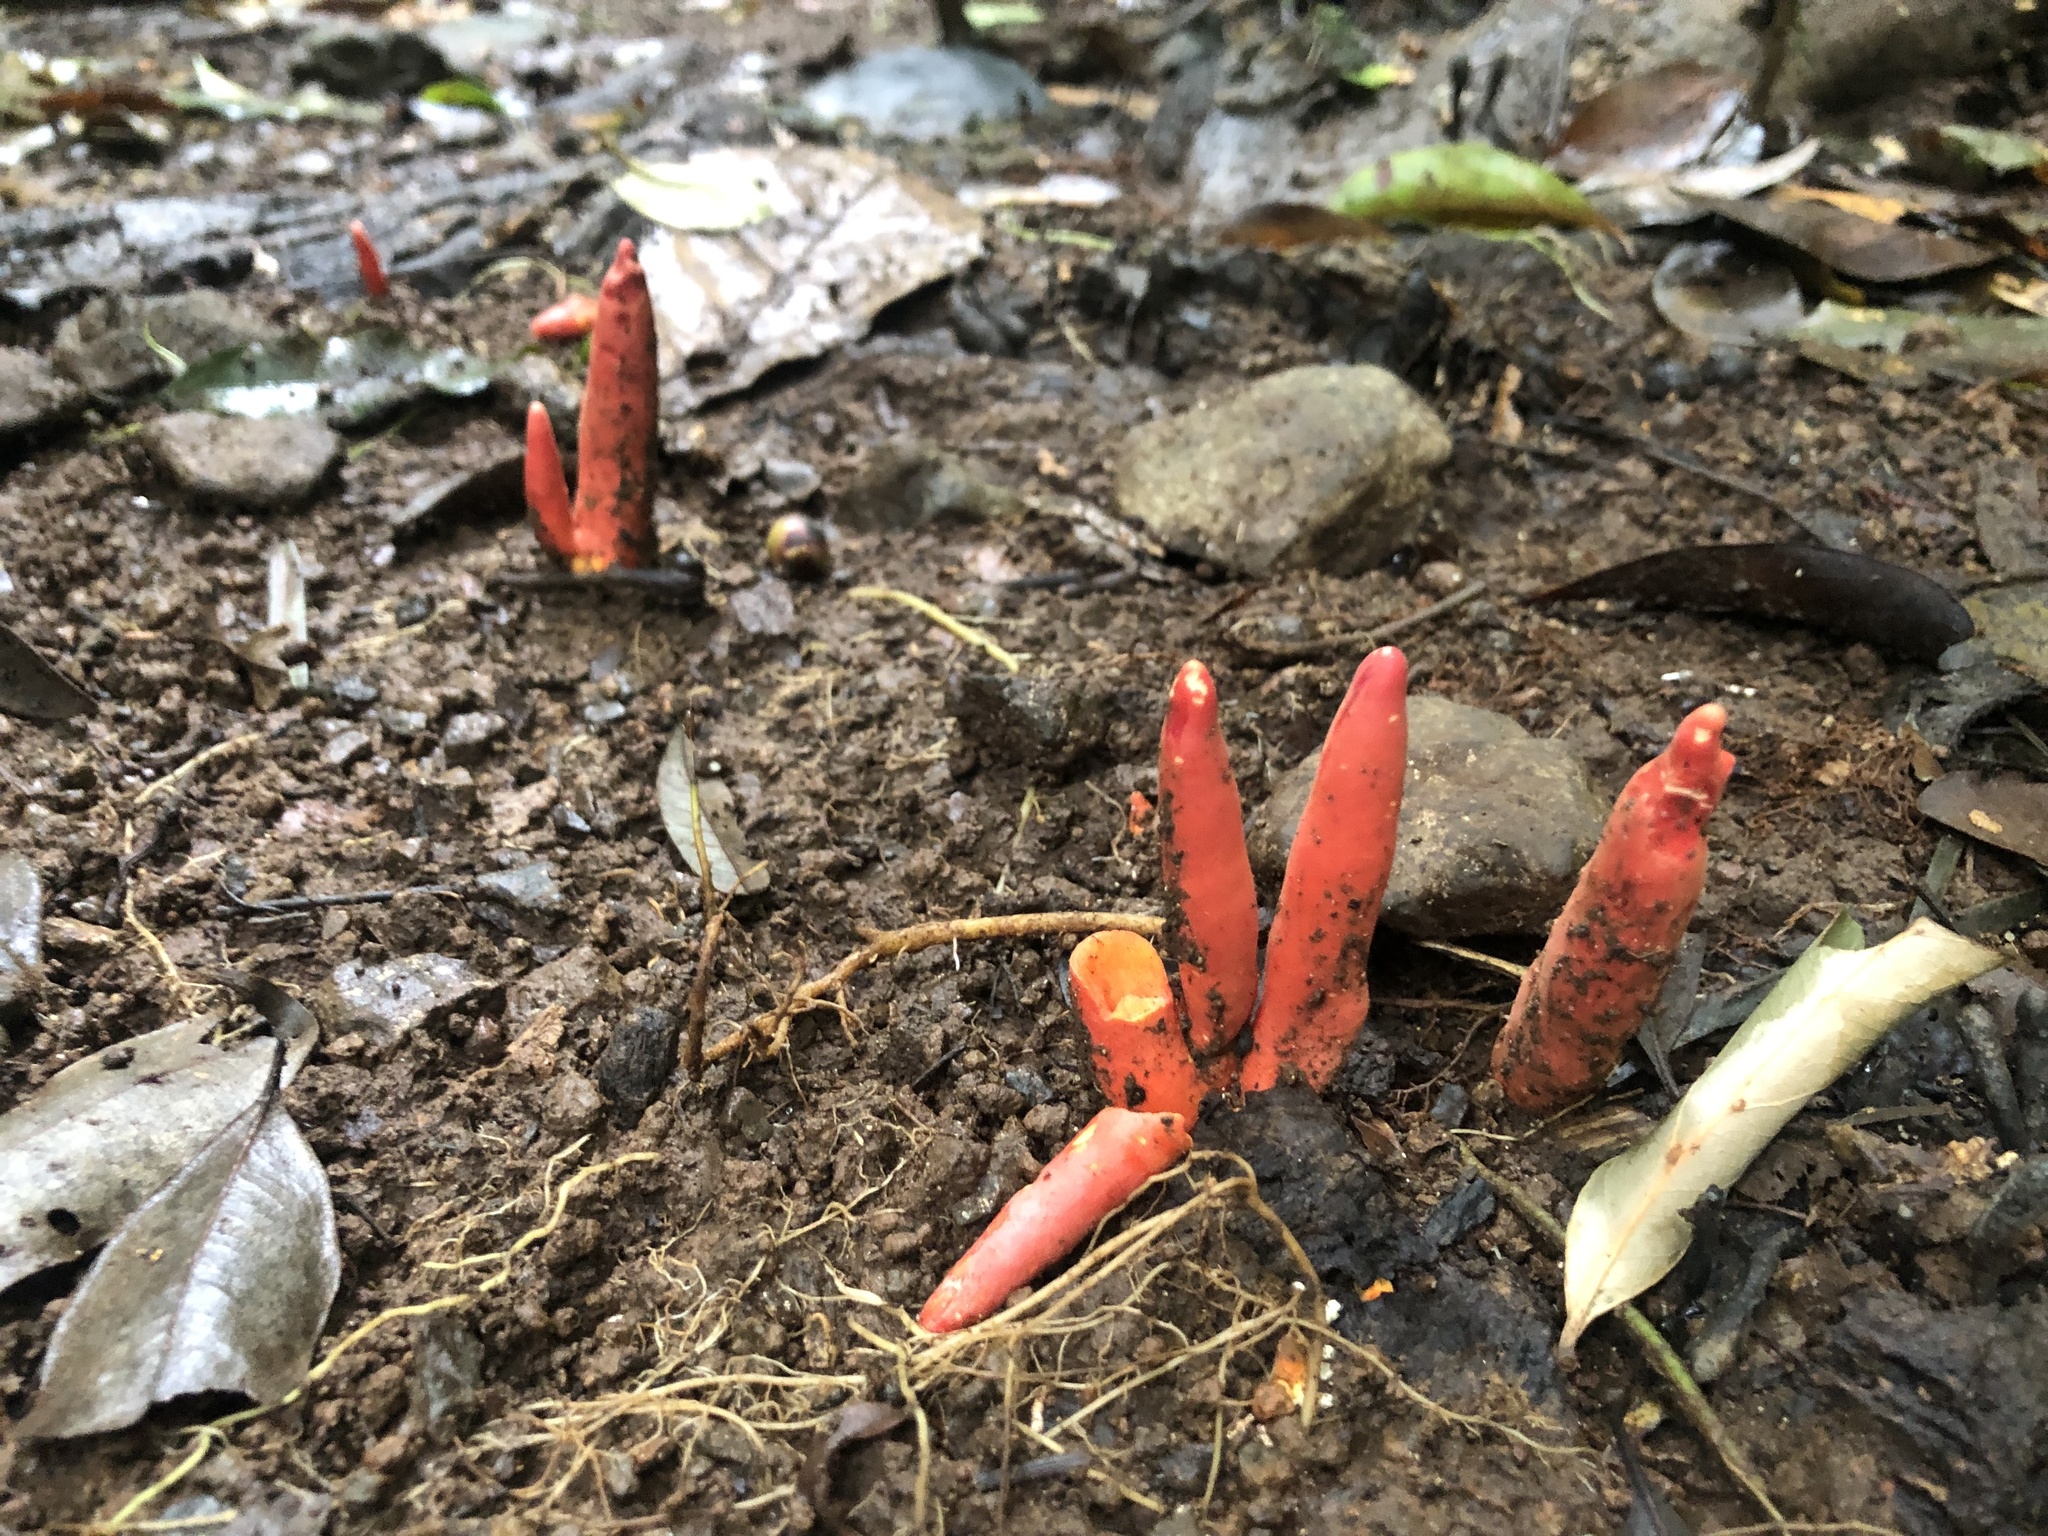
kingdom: Fungi
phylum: Ascomycota
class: Sordariomycetes
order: Hypocreales
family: Hypocreaceae
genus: Trichoderma
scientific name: Trichoderma cornu-damae
